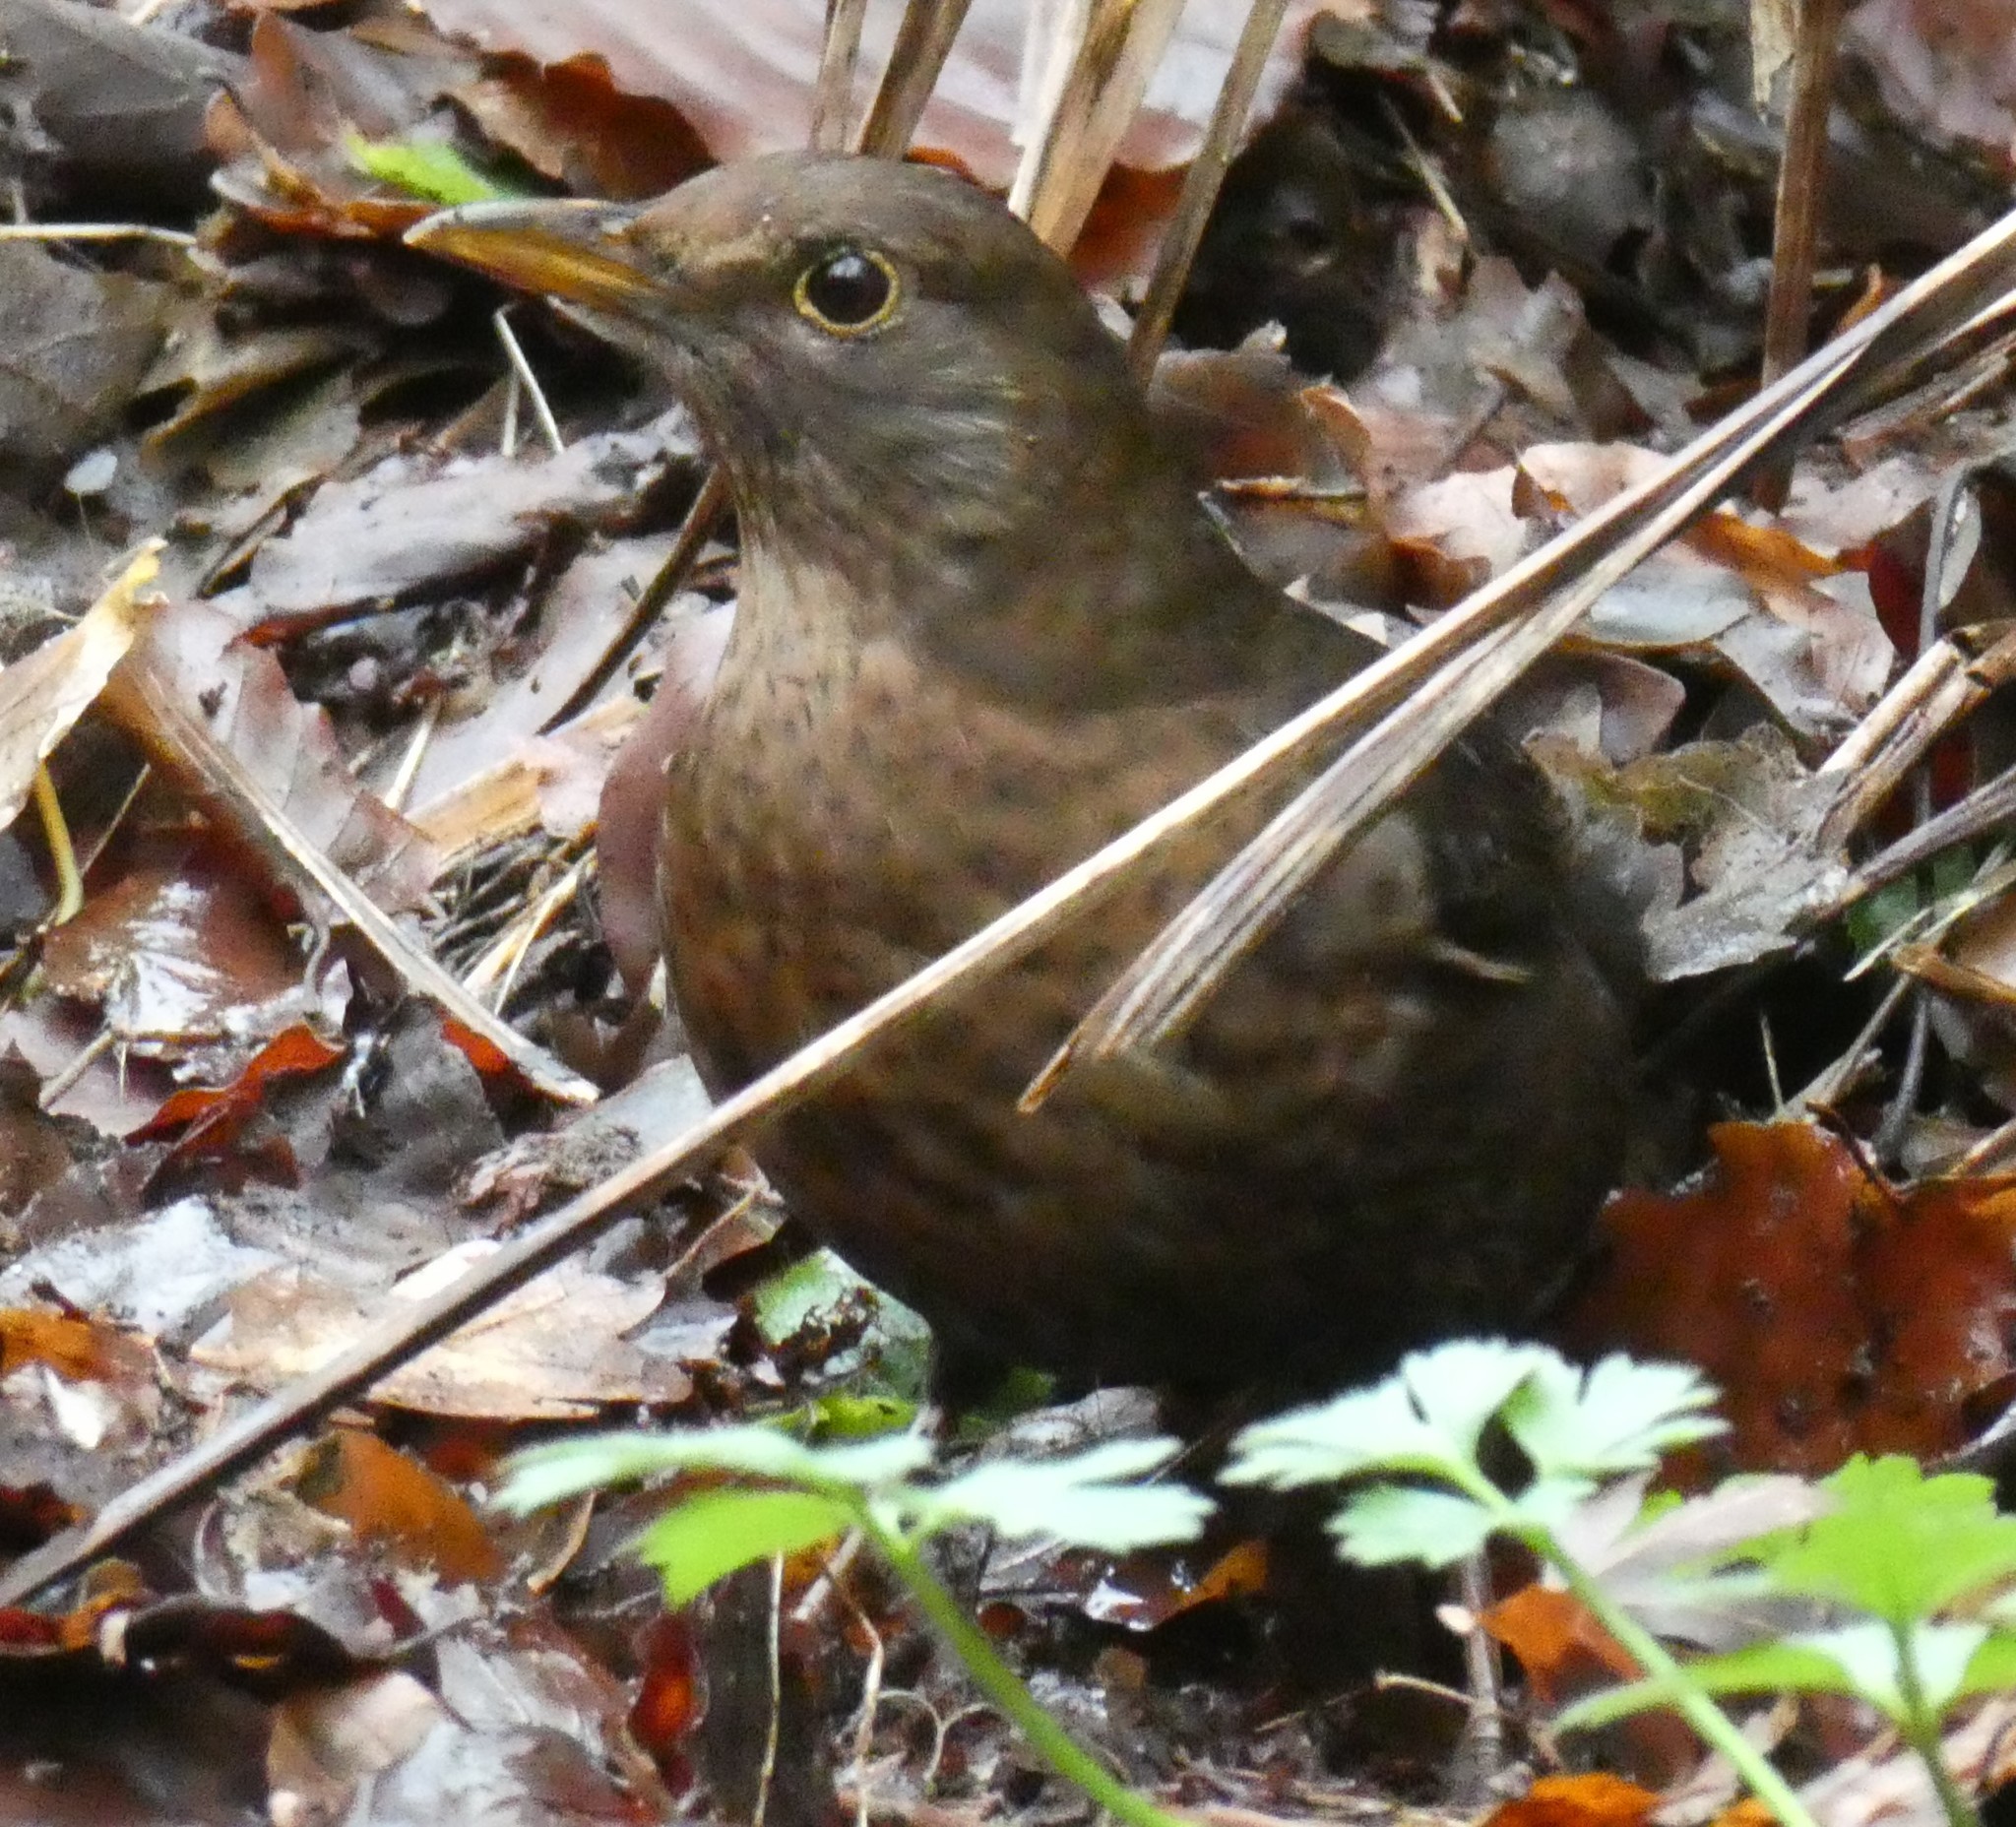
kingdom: Animalia
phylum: Chordata
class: Aves
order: Passeriformes
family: Turdidae
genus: Turdus
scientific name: Turdus merula
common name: Common blackbird
